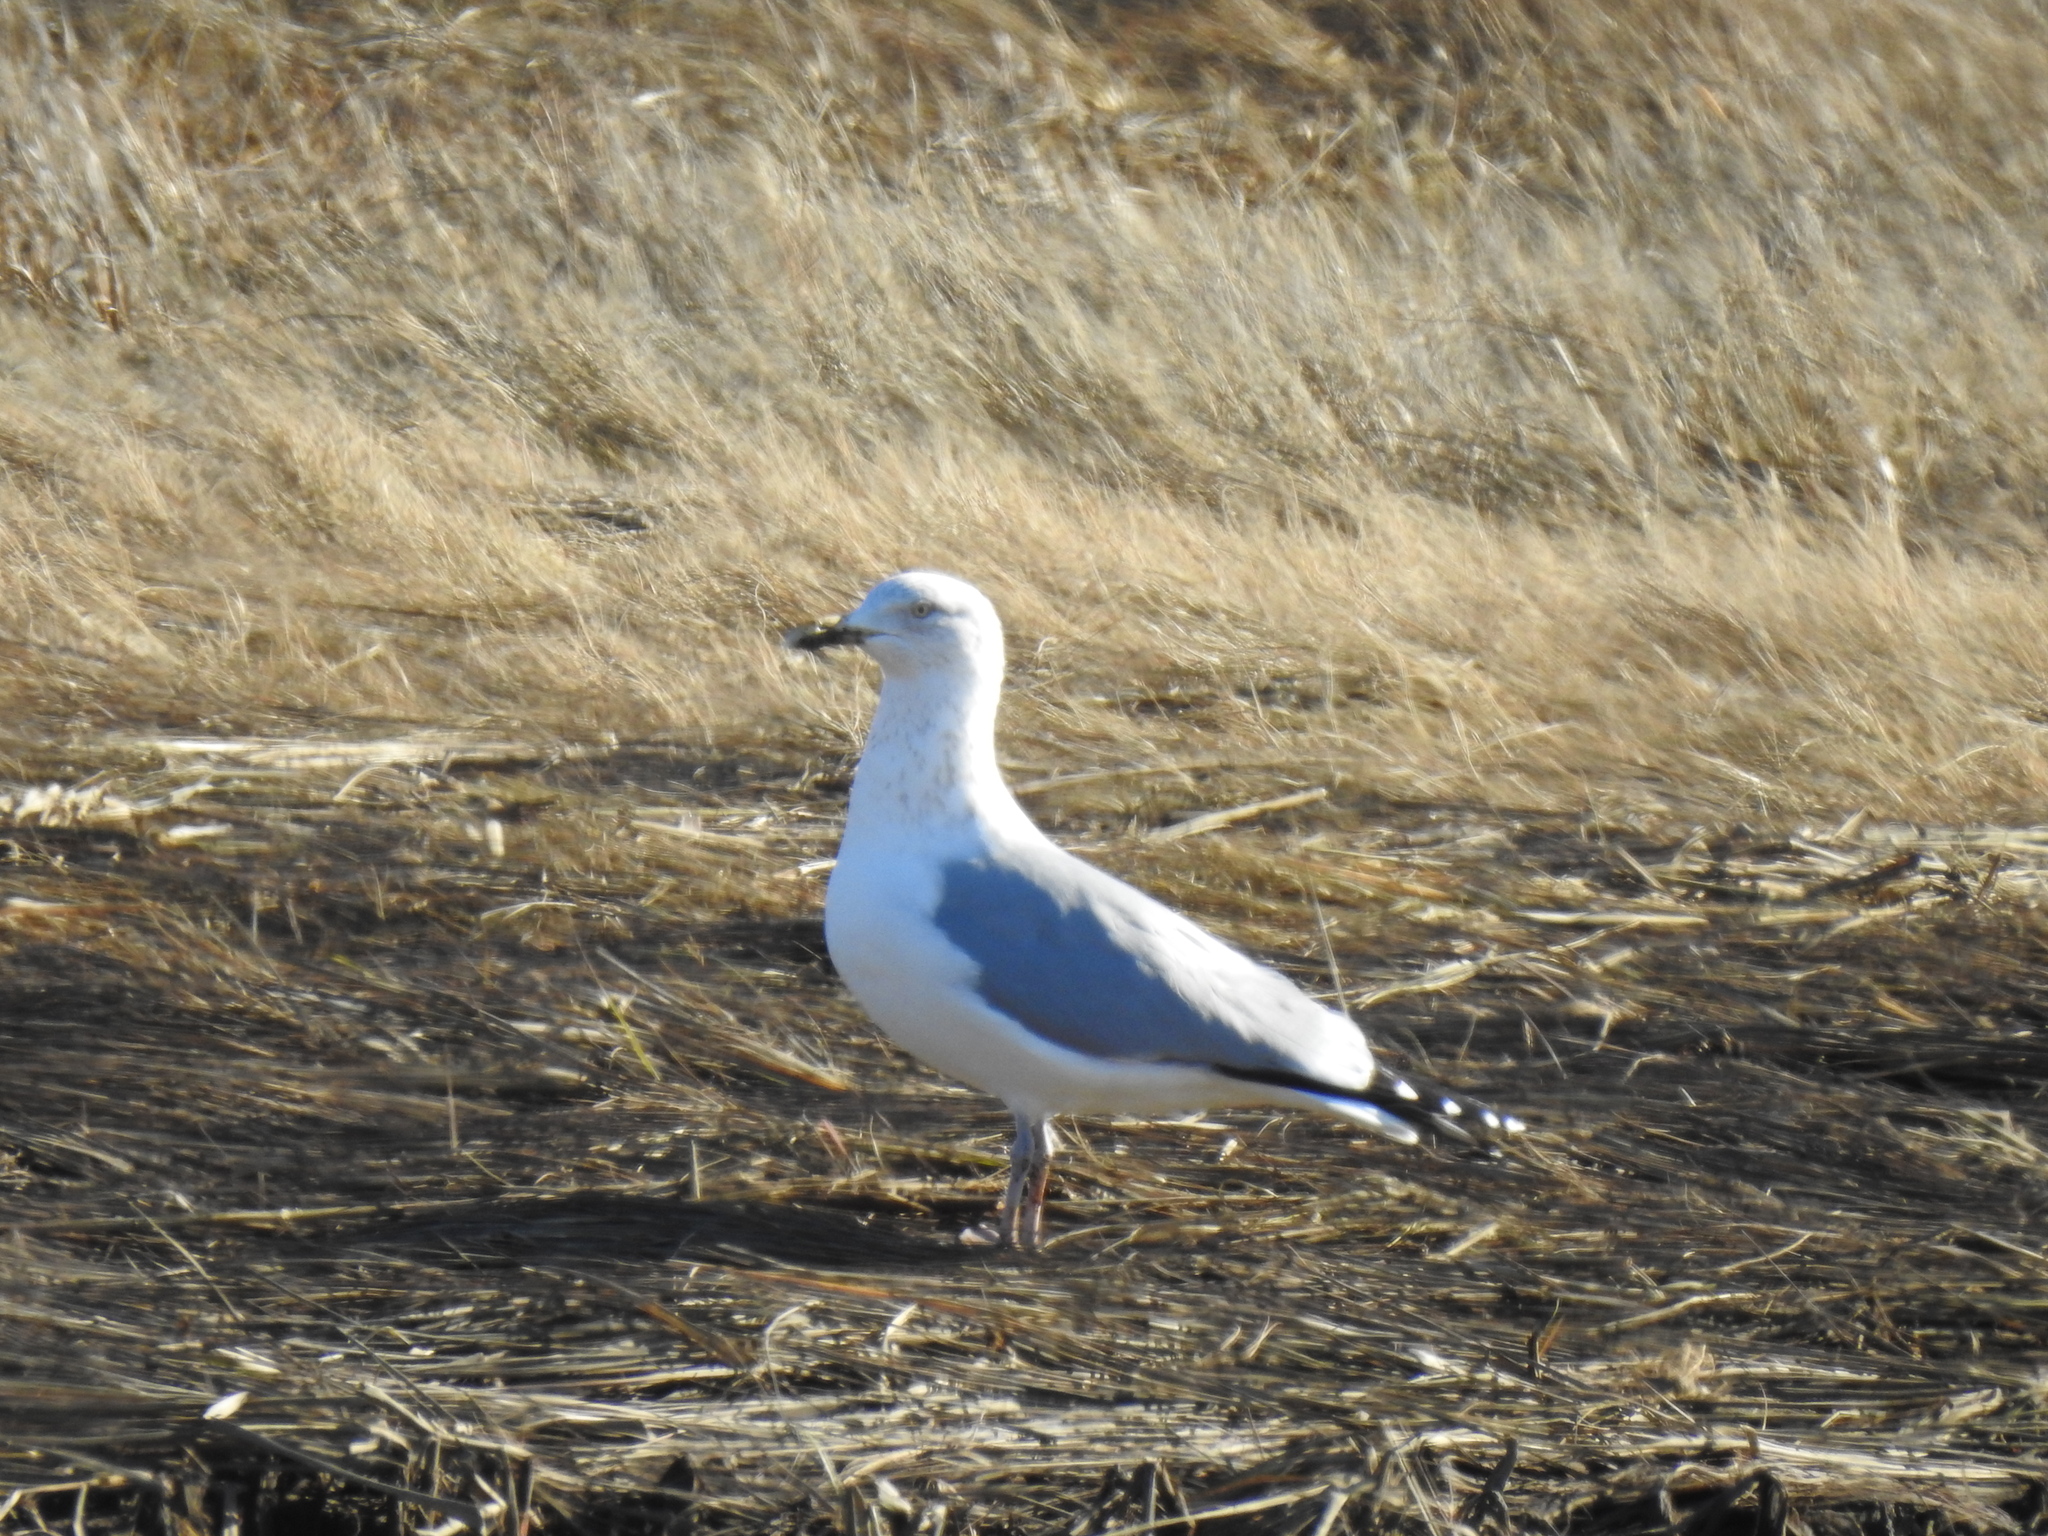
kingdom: Animalia
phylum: Chordata
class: Aves
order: Charadriiformes
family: Laridae
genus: Larus
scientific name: Larus argentatus
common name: Herring gull
